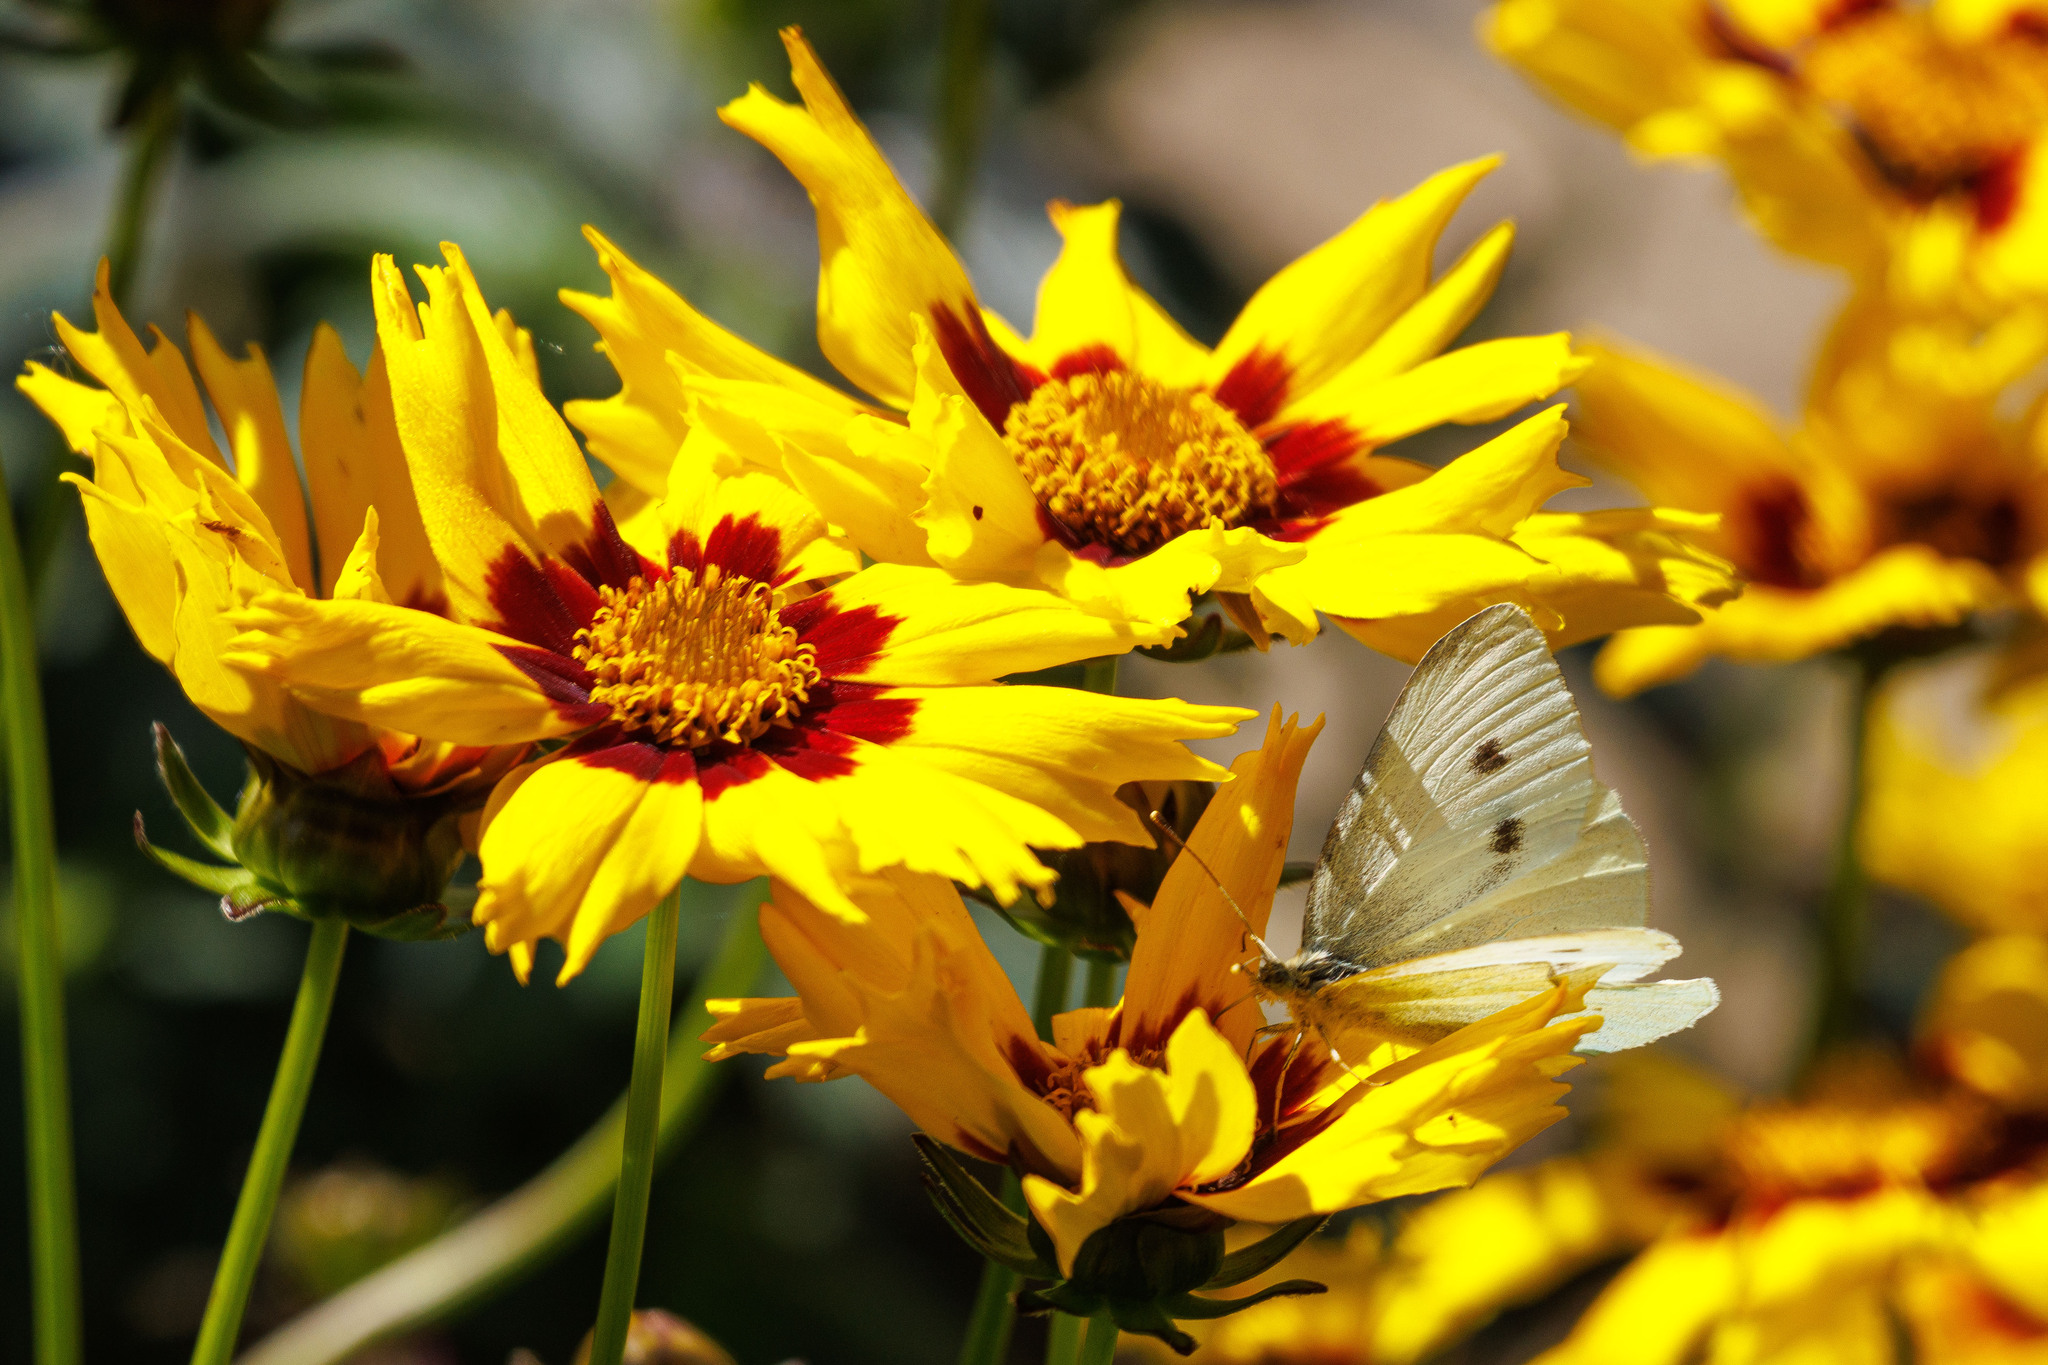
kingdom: Animalia
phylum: Arthropoda
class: Insecta
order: Lepidoptera
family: Pieridae
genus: Pieris
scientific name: Pieris rapae
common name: Small white
